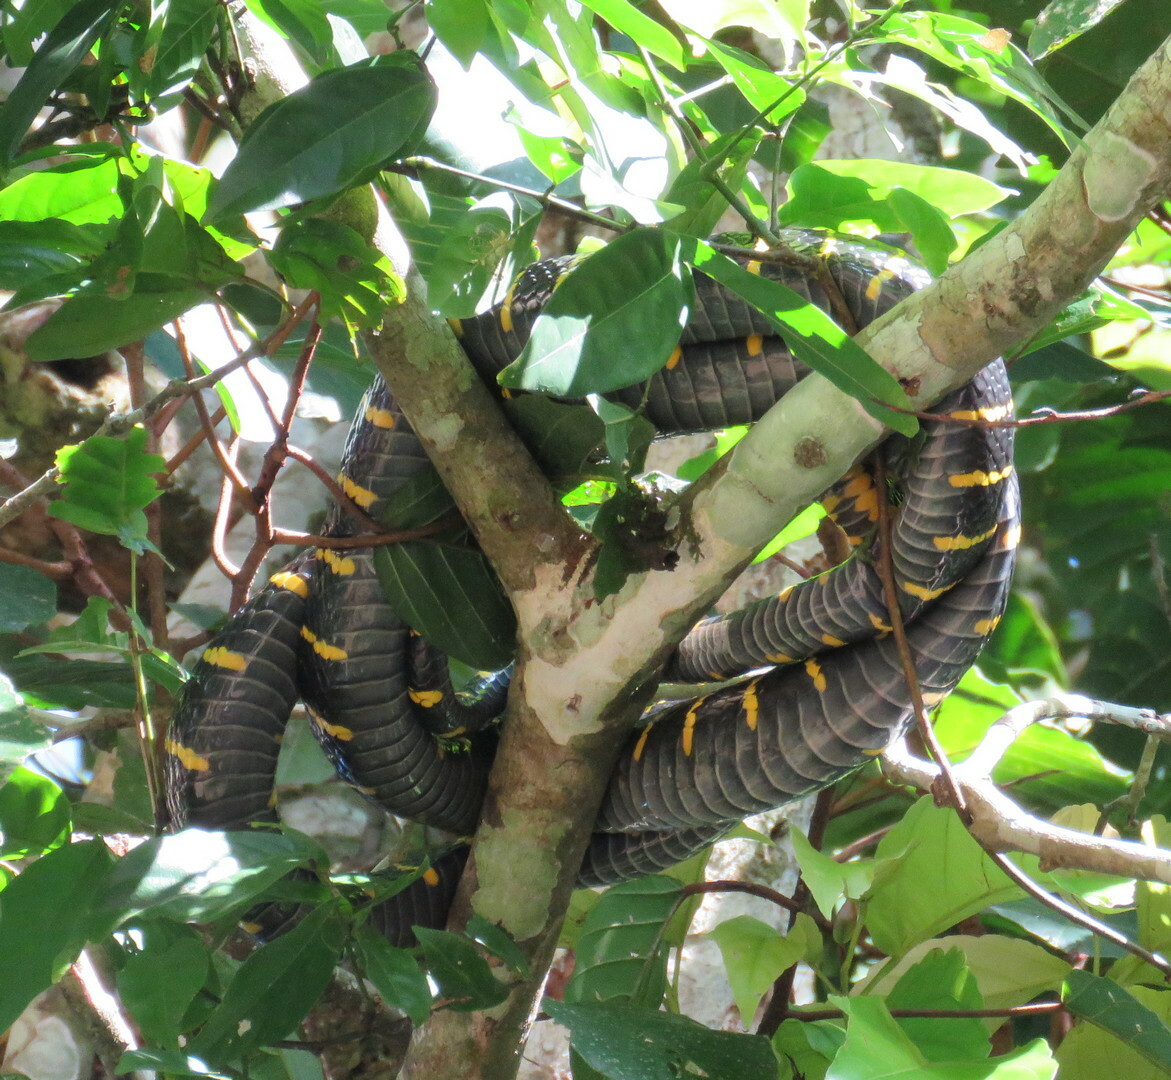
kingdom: Animalia
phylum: Chordata
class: Squamata
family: Colubridae
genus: Boiga
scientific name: Boiga dendrophila
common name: Gold-ringed cat snake
